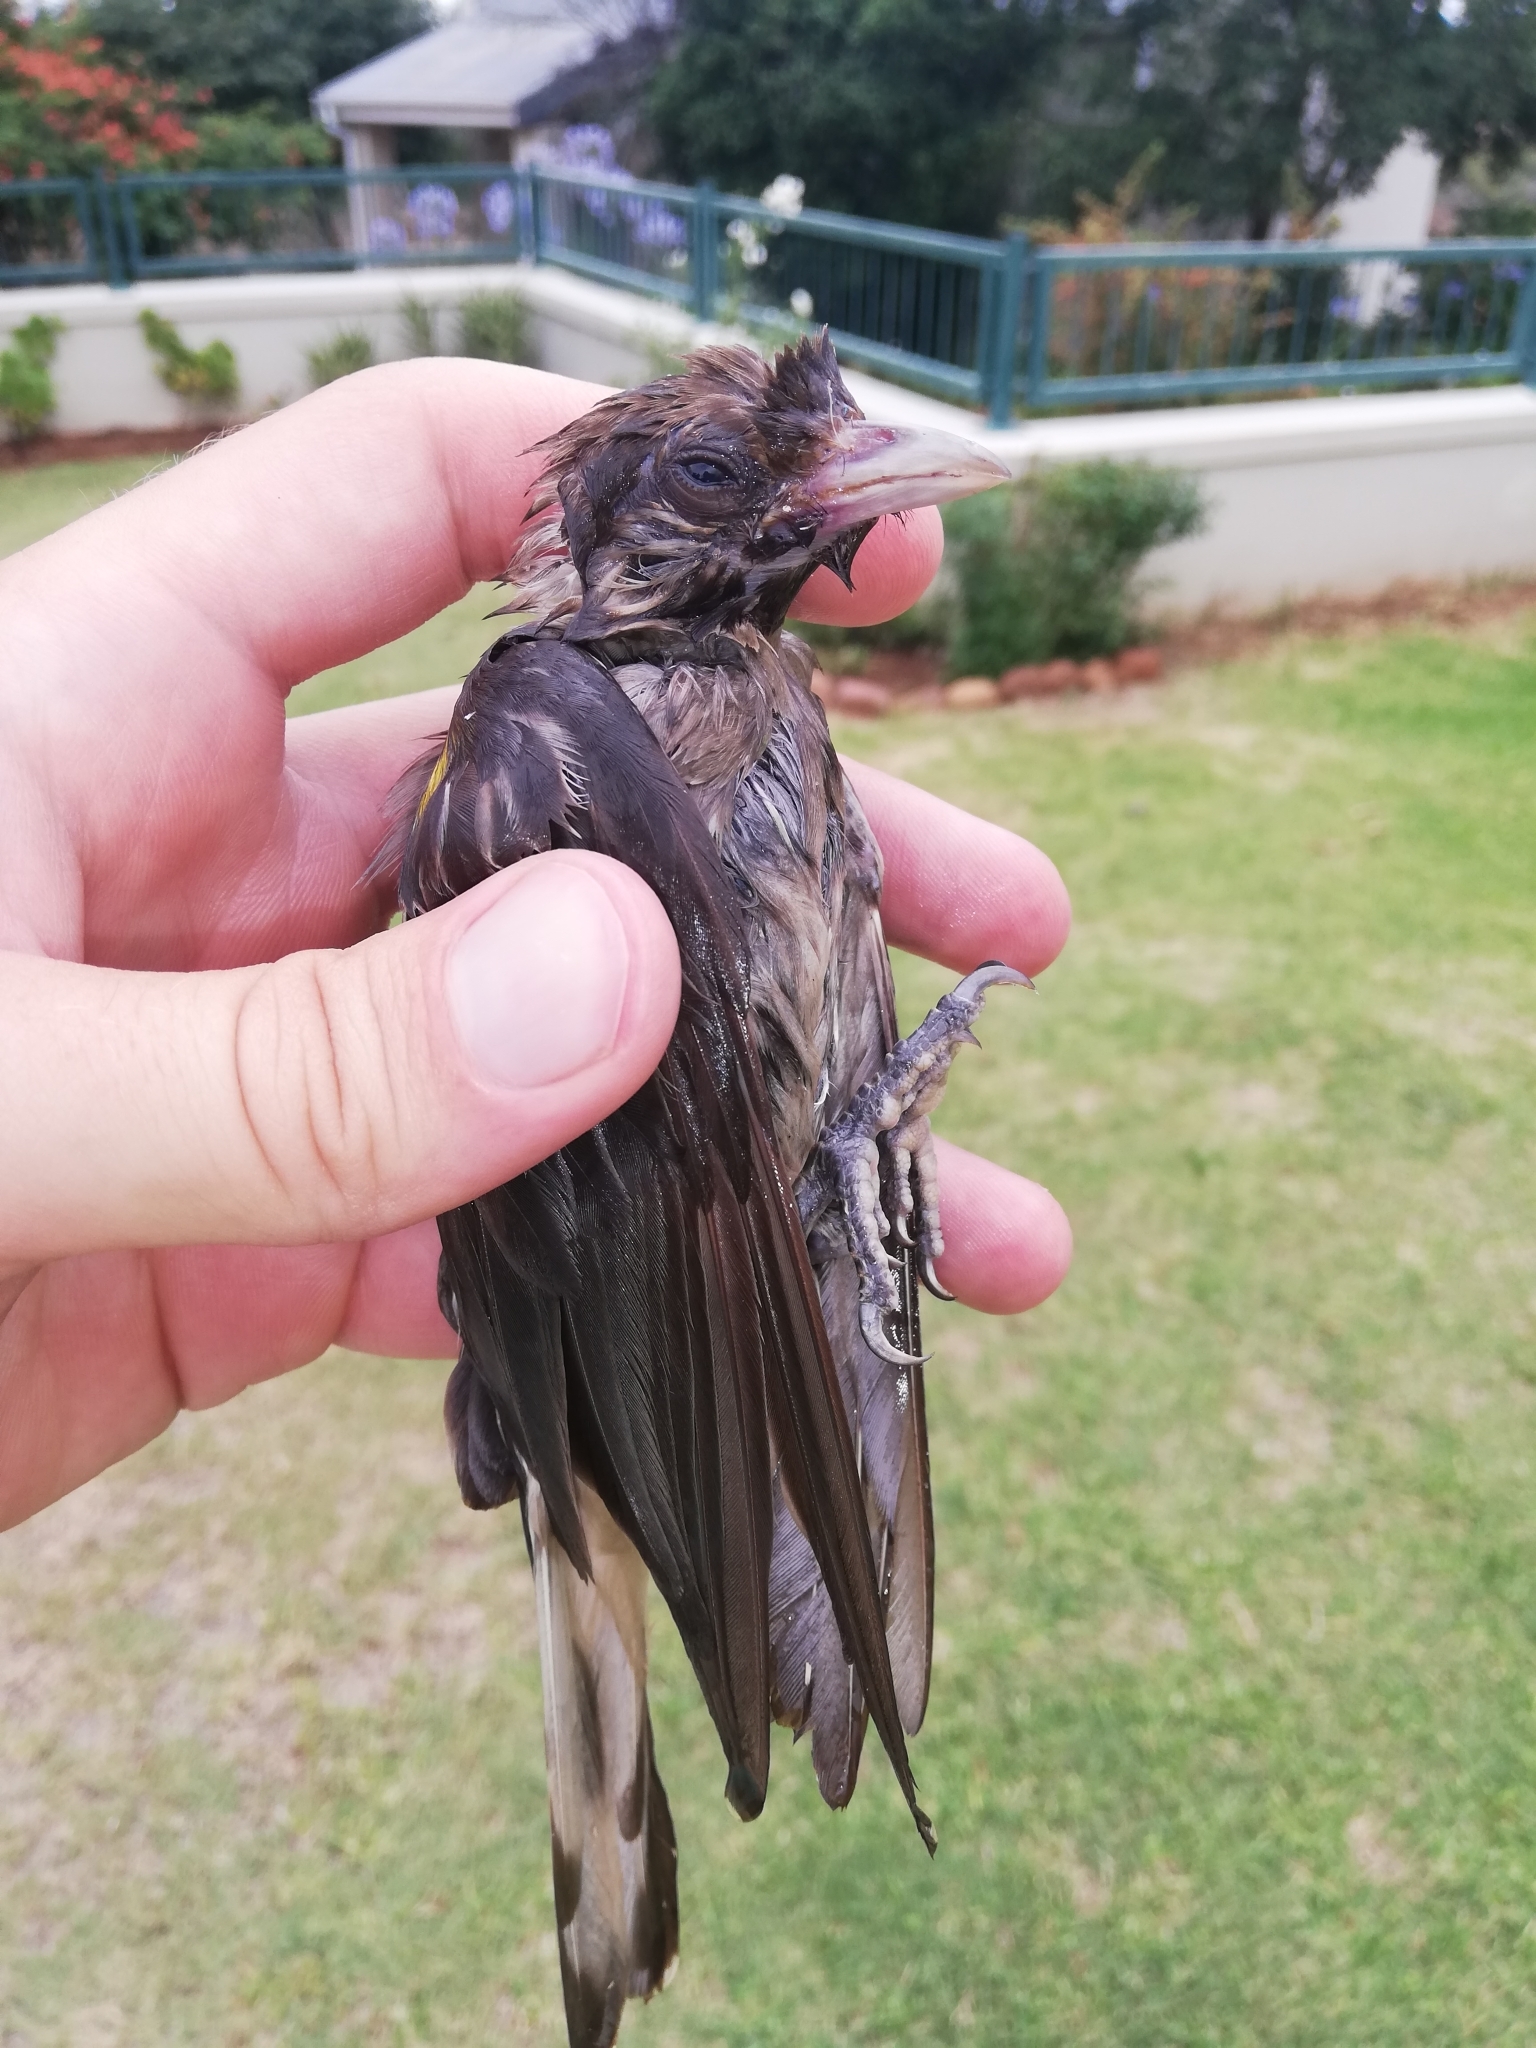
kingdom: Animalia
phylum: Chordata
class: Aves
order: Piciformes
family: Indicatoridae
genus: Indicator
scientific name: Indicator indicator
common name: Greater honeyguide
